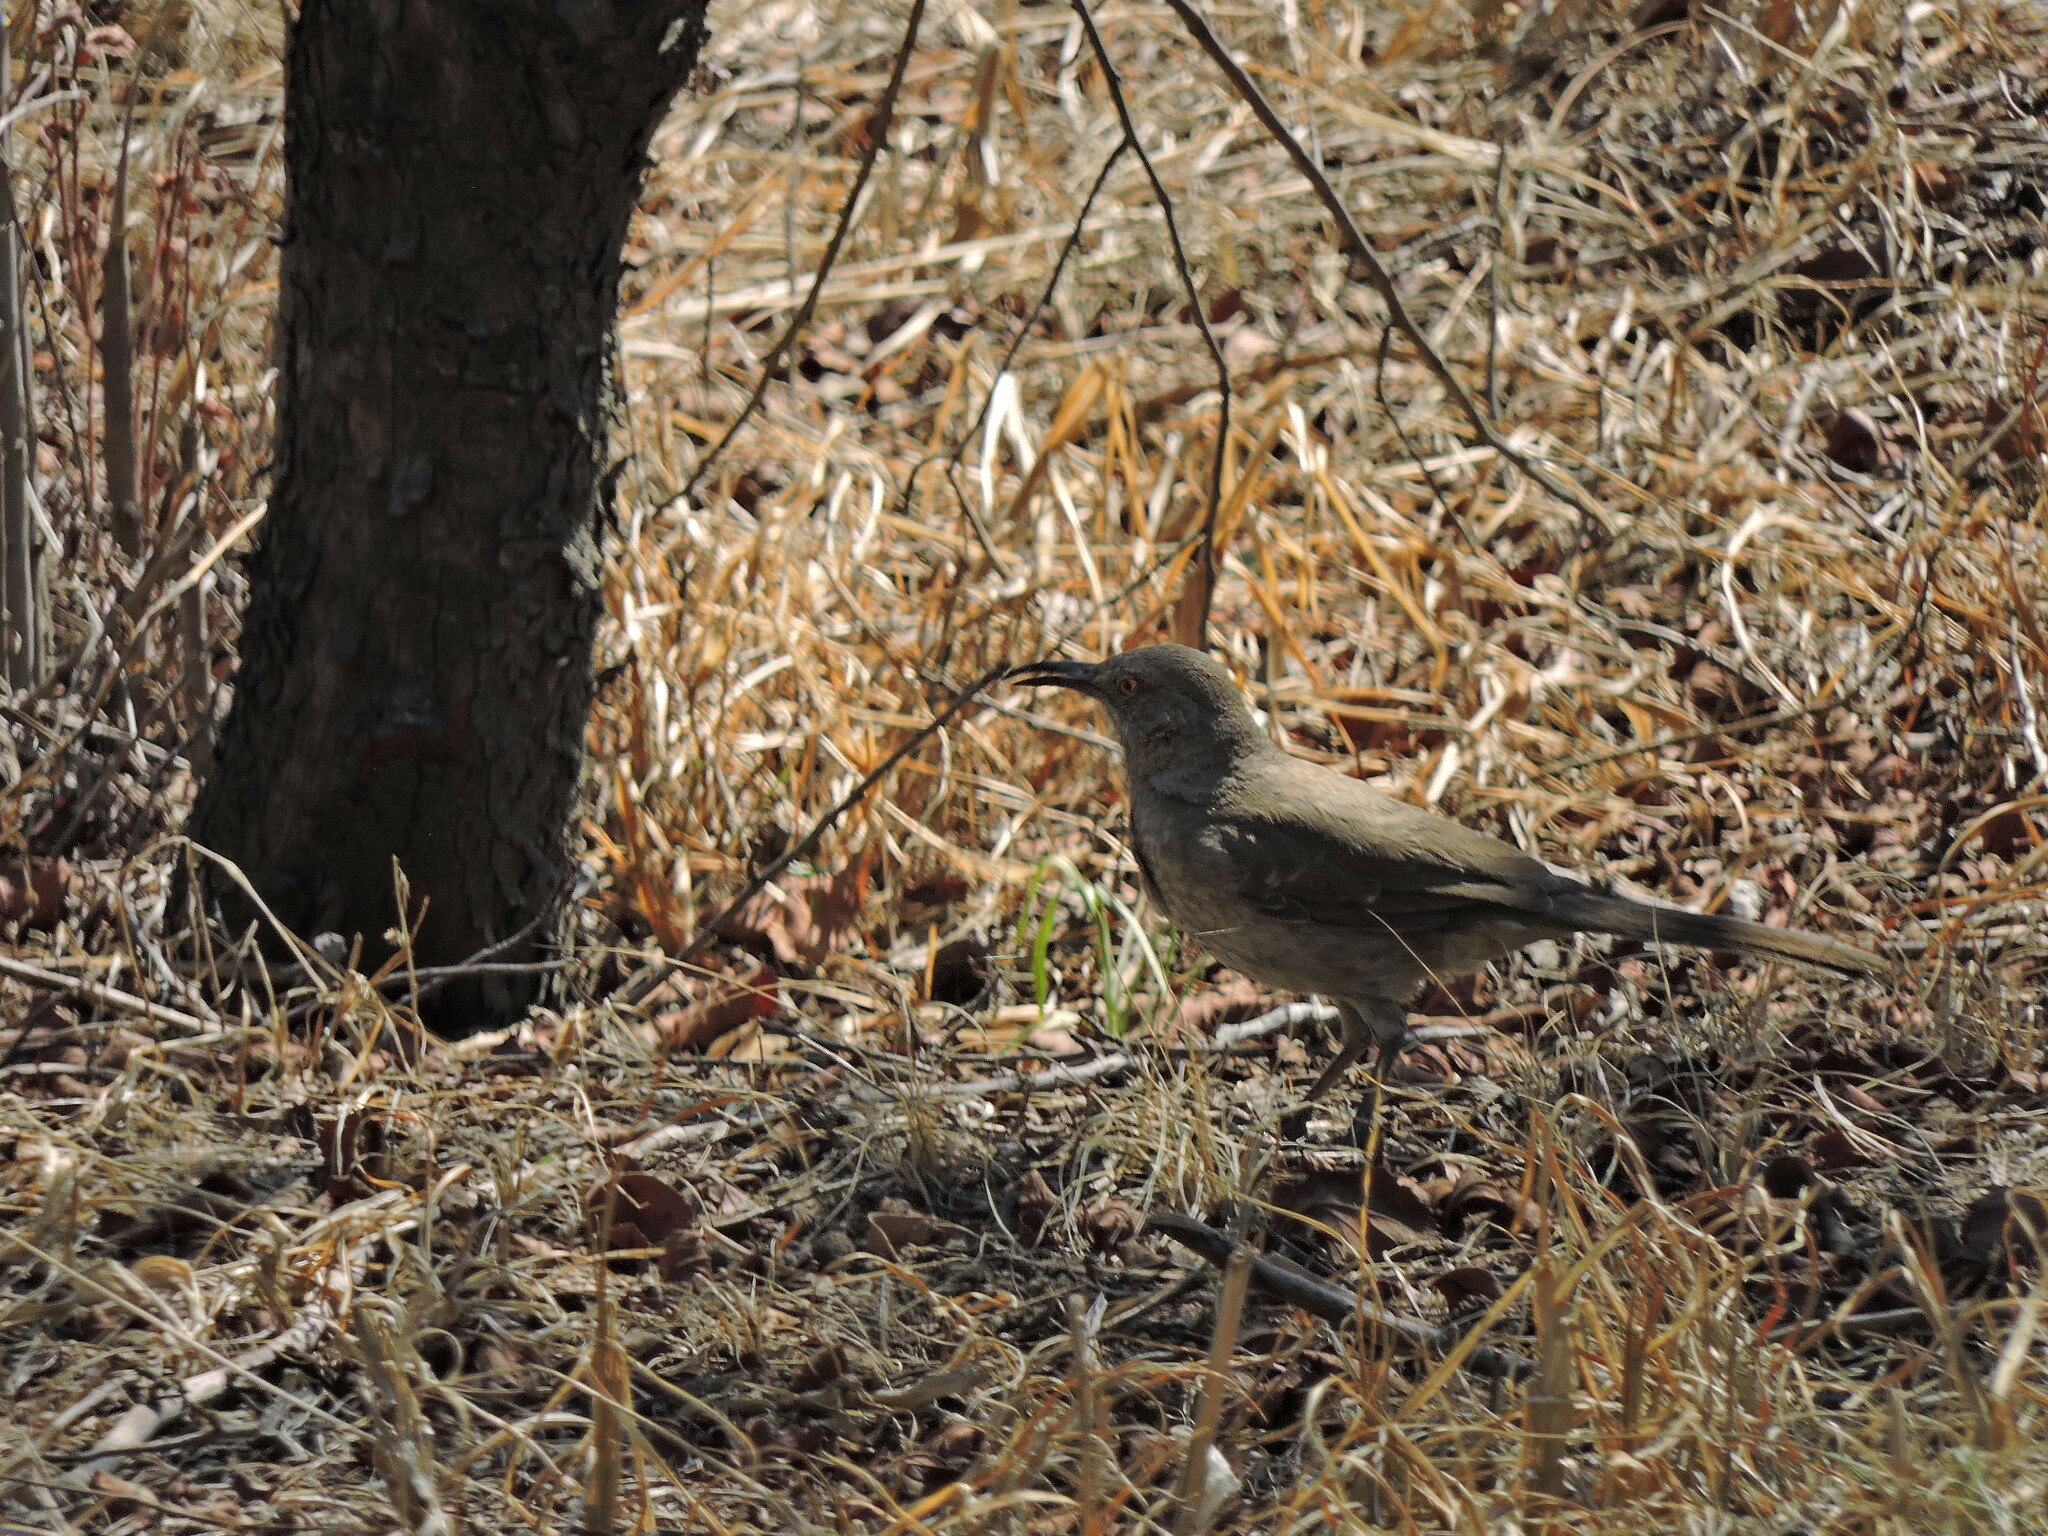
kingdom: Animalia
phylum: Chordata
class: Aves
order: Passeriformes
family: Mimidae
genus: Toxostoma
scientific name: Toxostoma curvirostre
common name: Curve-billed thrasher
